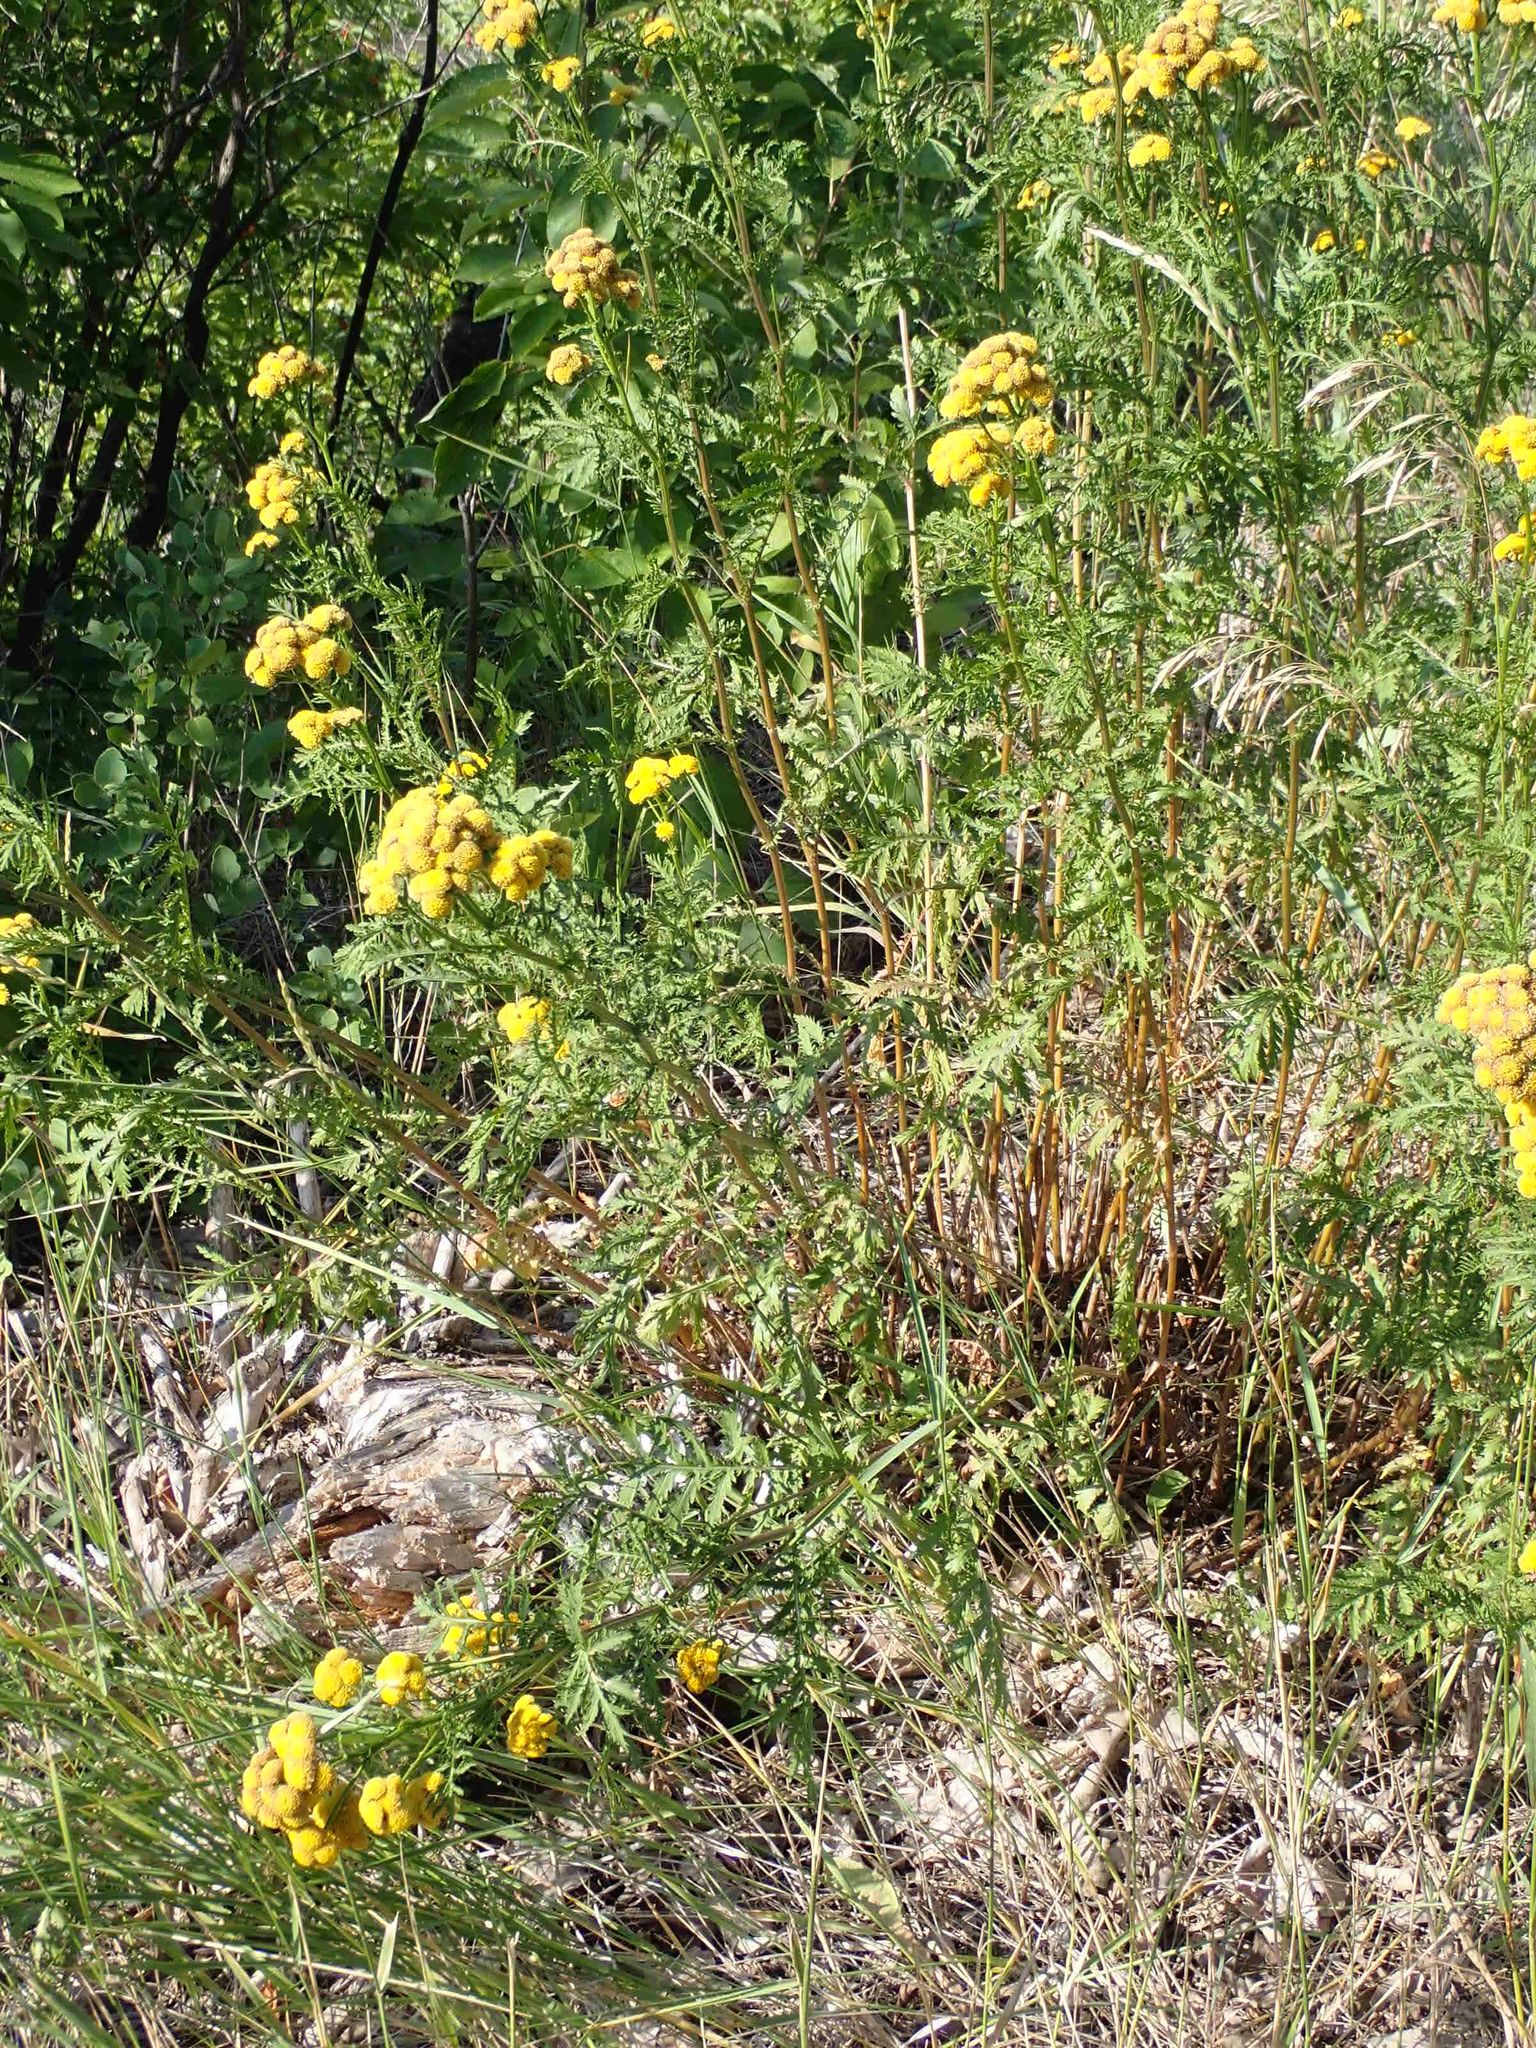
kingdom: Plantae
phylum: Tracheophyta
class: Magnoliopsida
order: Asterales
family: Asteraceae
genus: Tanacetum
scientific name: Tanacetum vulgare
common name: Common tansy
